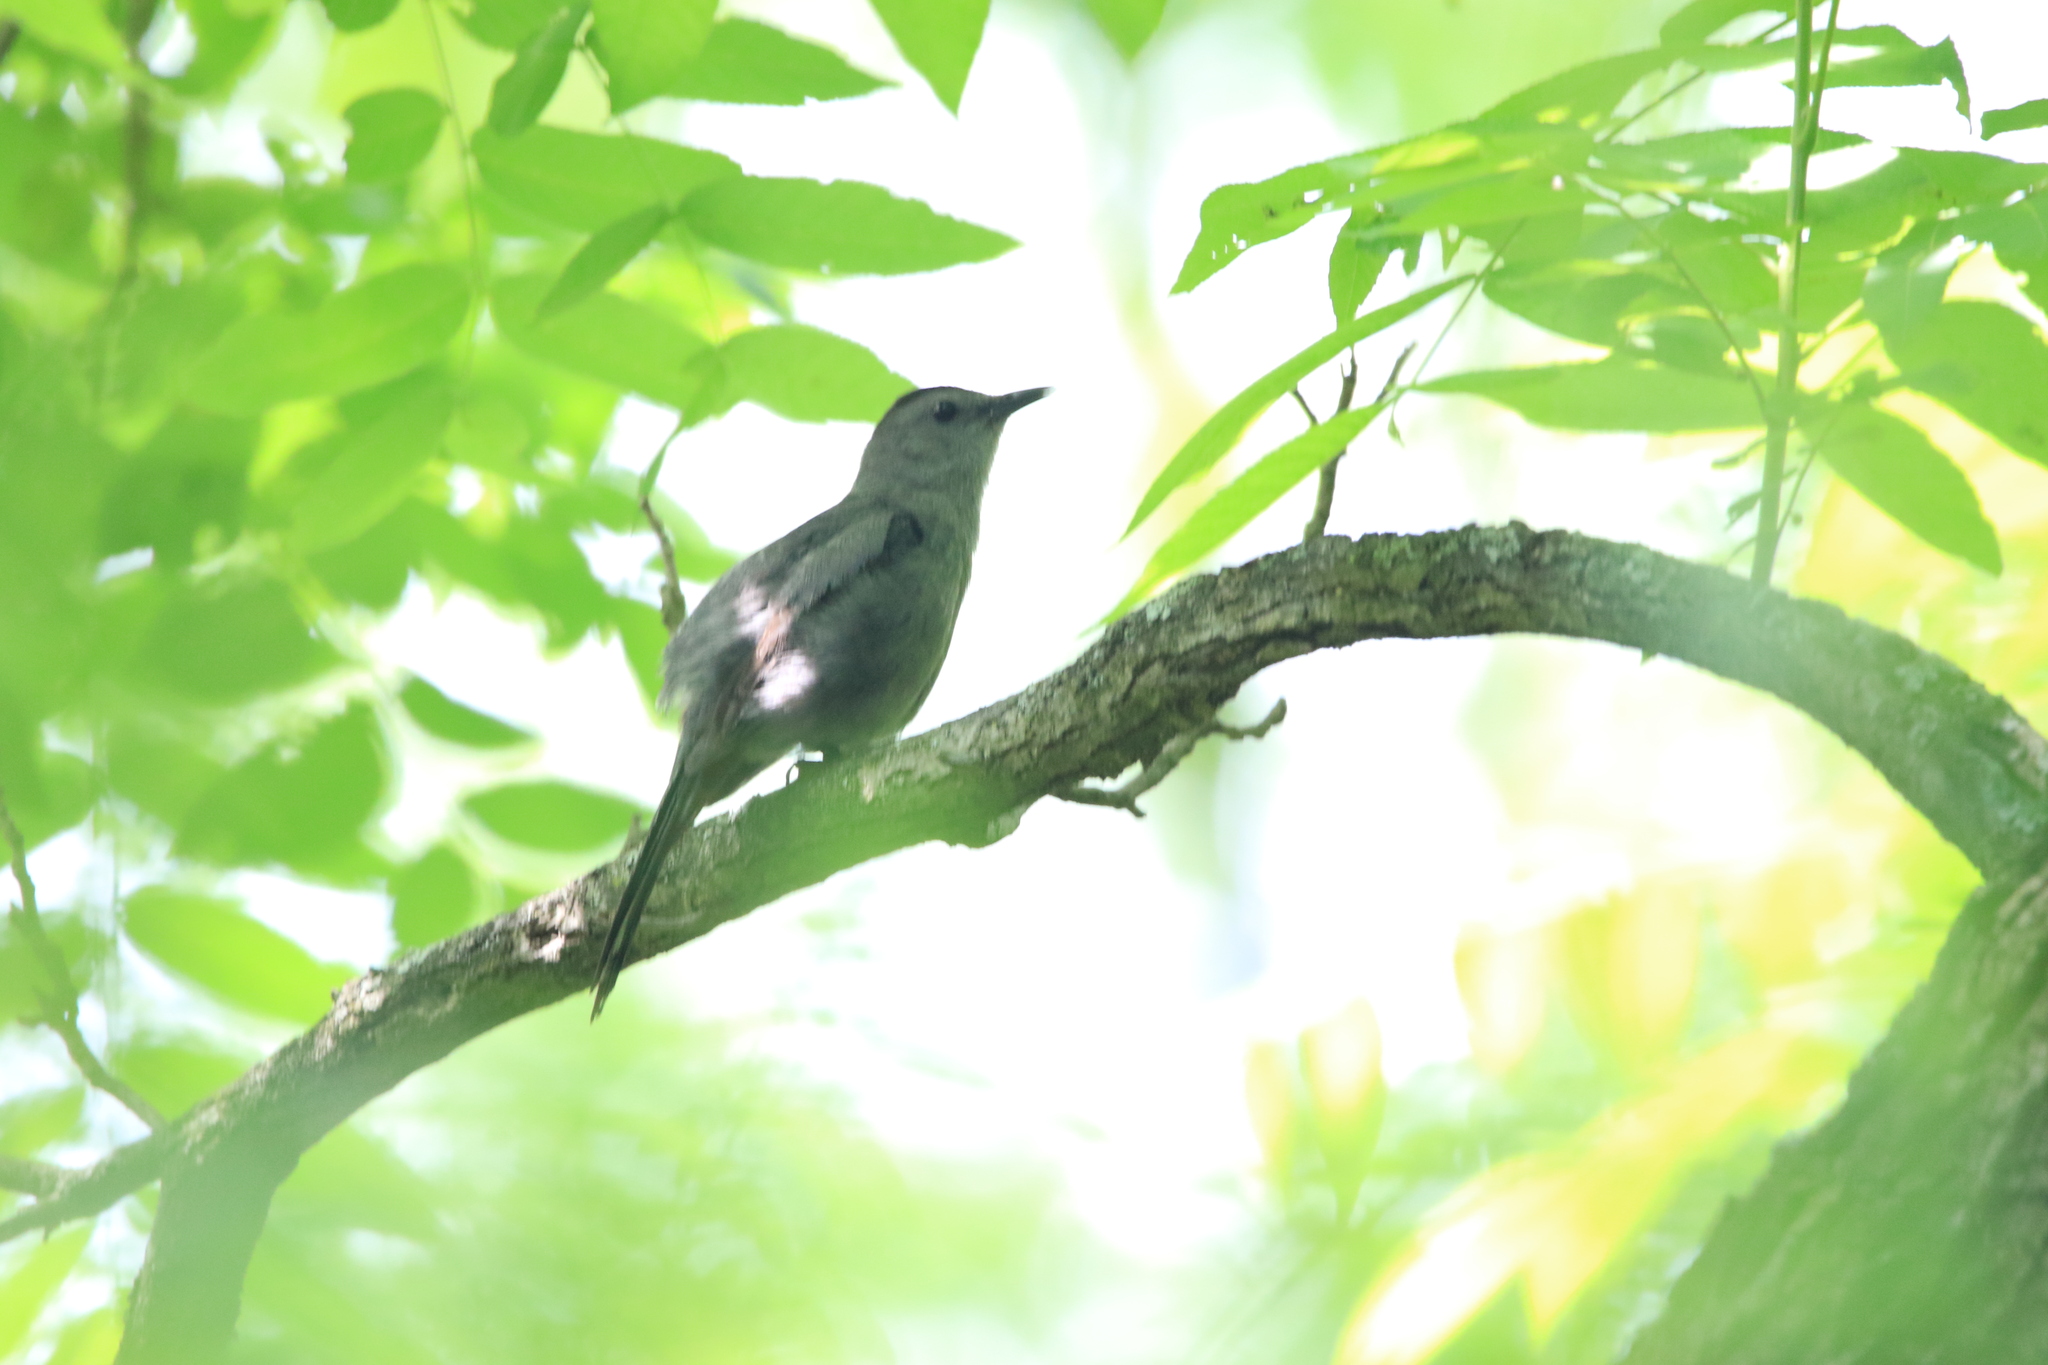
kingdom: Animalia
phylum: Chordata
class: Aves
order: Passeriformes
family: Mimidae
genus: Dumetella
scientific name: Dumetella carolinensis
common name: Gray catbird
